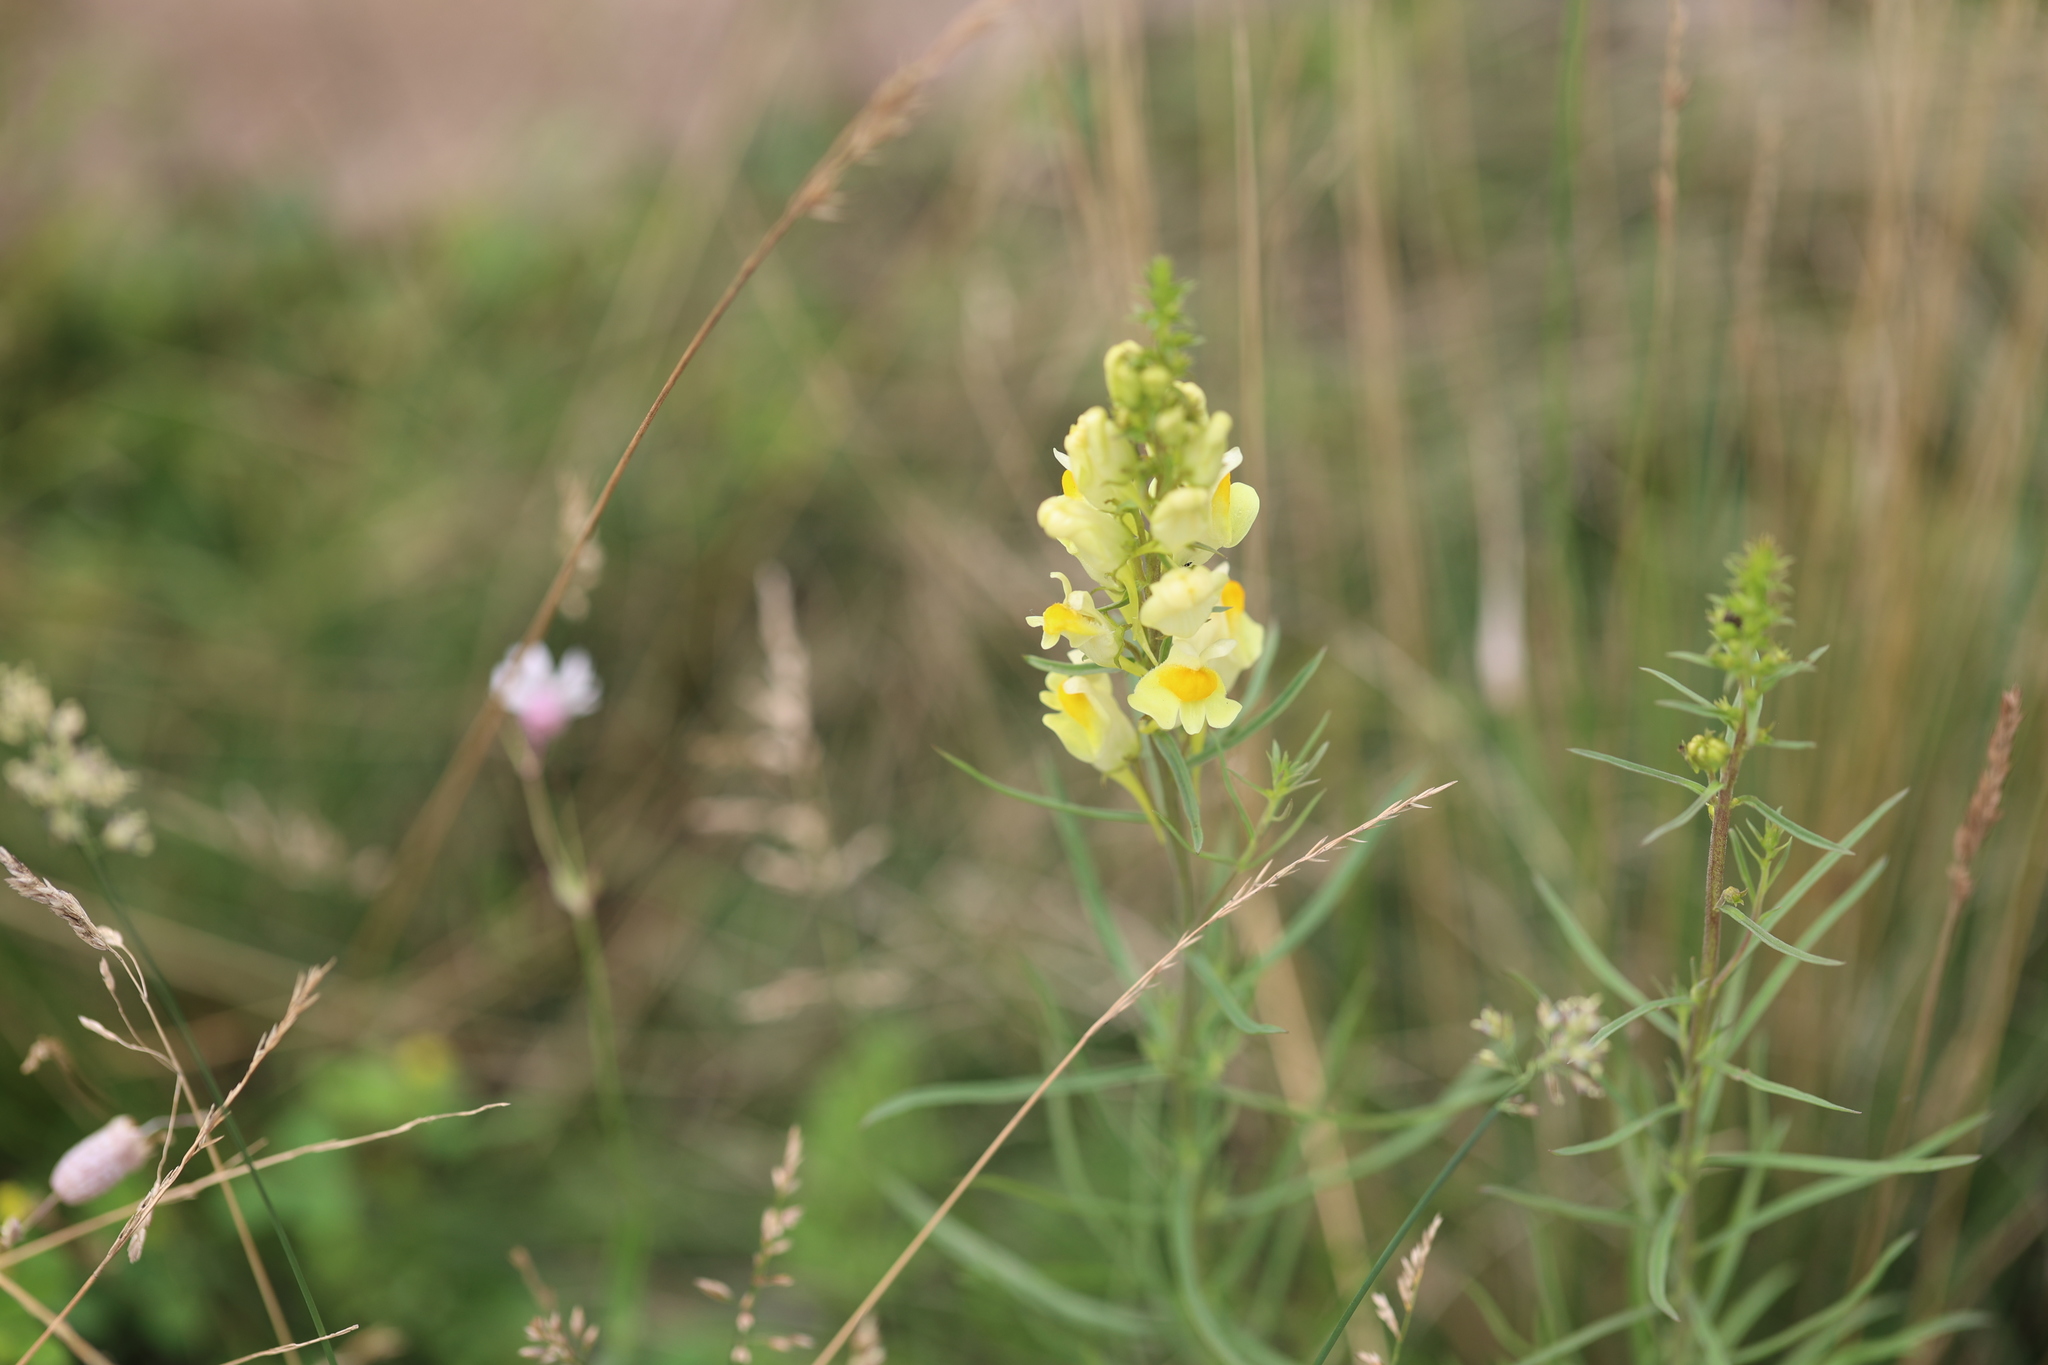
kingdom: Plantae
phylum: Tracheophyta
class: Magnoliopsida
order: Lamiales
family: Plantaginaceae
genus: Linaria
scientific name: Linaria vulgaris
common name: Butter and eggs
